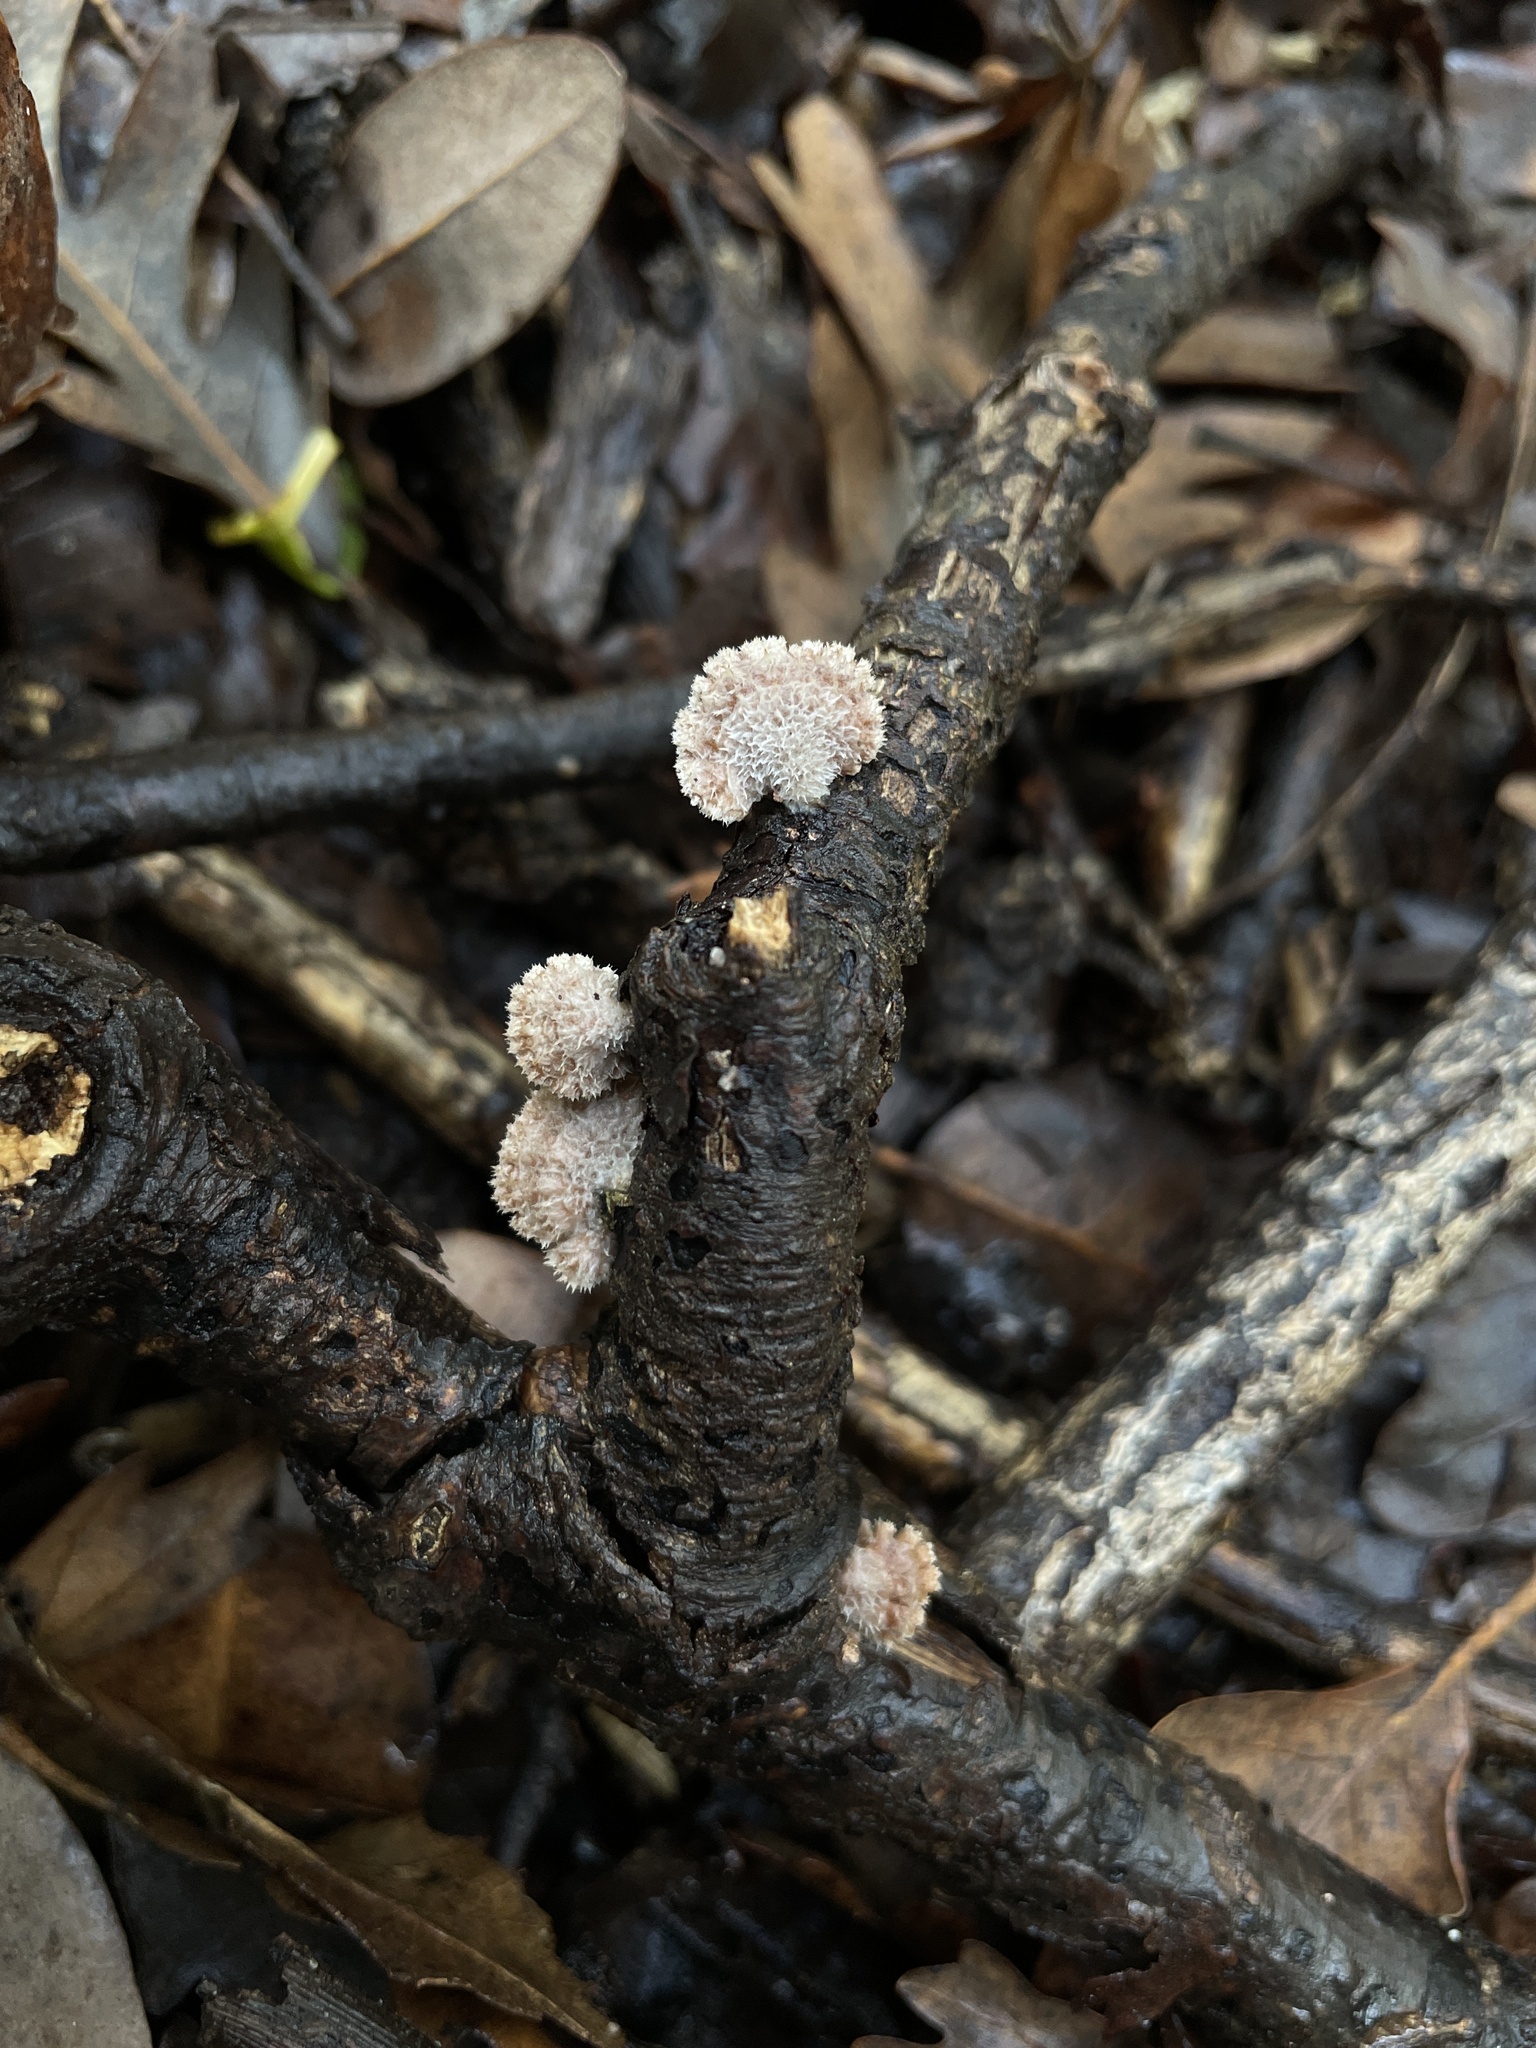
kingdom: Fungi
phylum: Basidiomycota
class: Agaricomycetes
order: Agaricales
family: Schizophyllaceae
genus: Schizophyllum
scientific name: Schizophyllum commune
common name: Common porecrust
